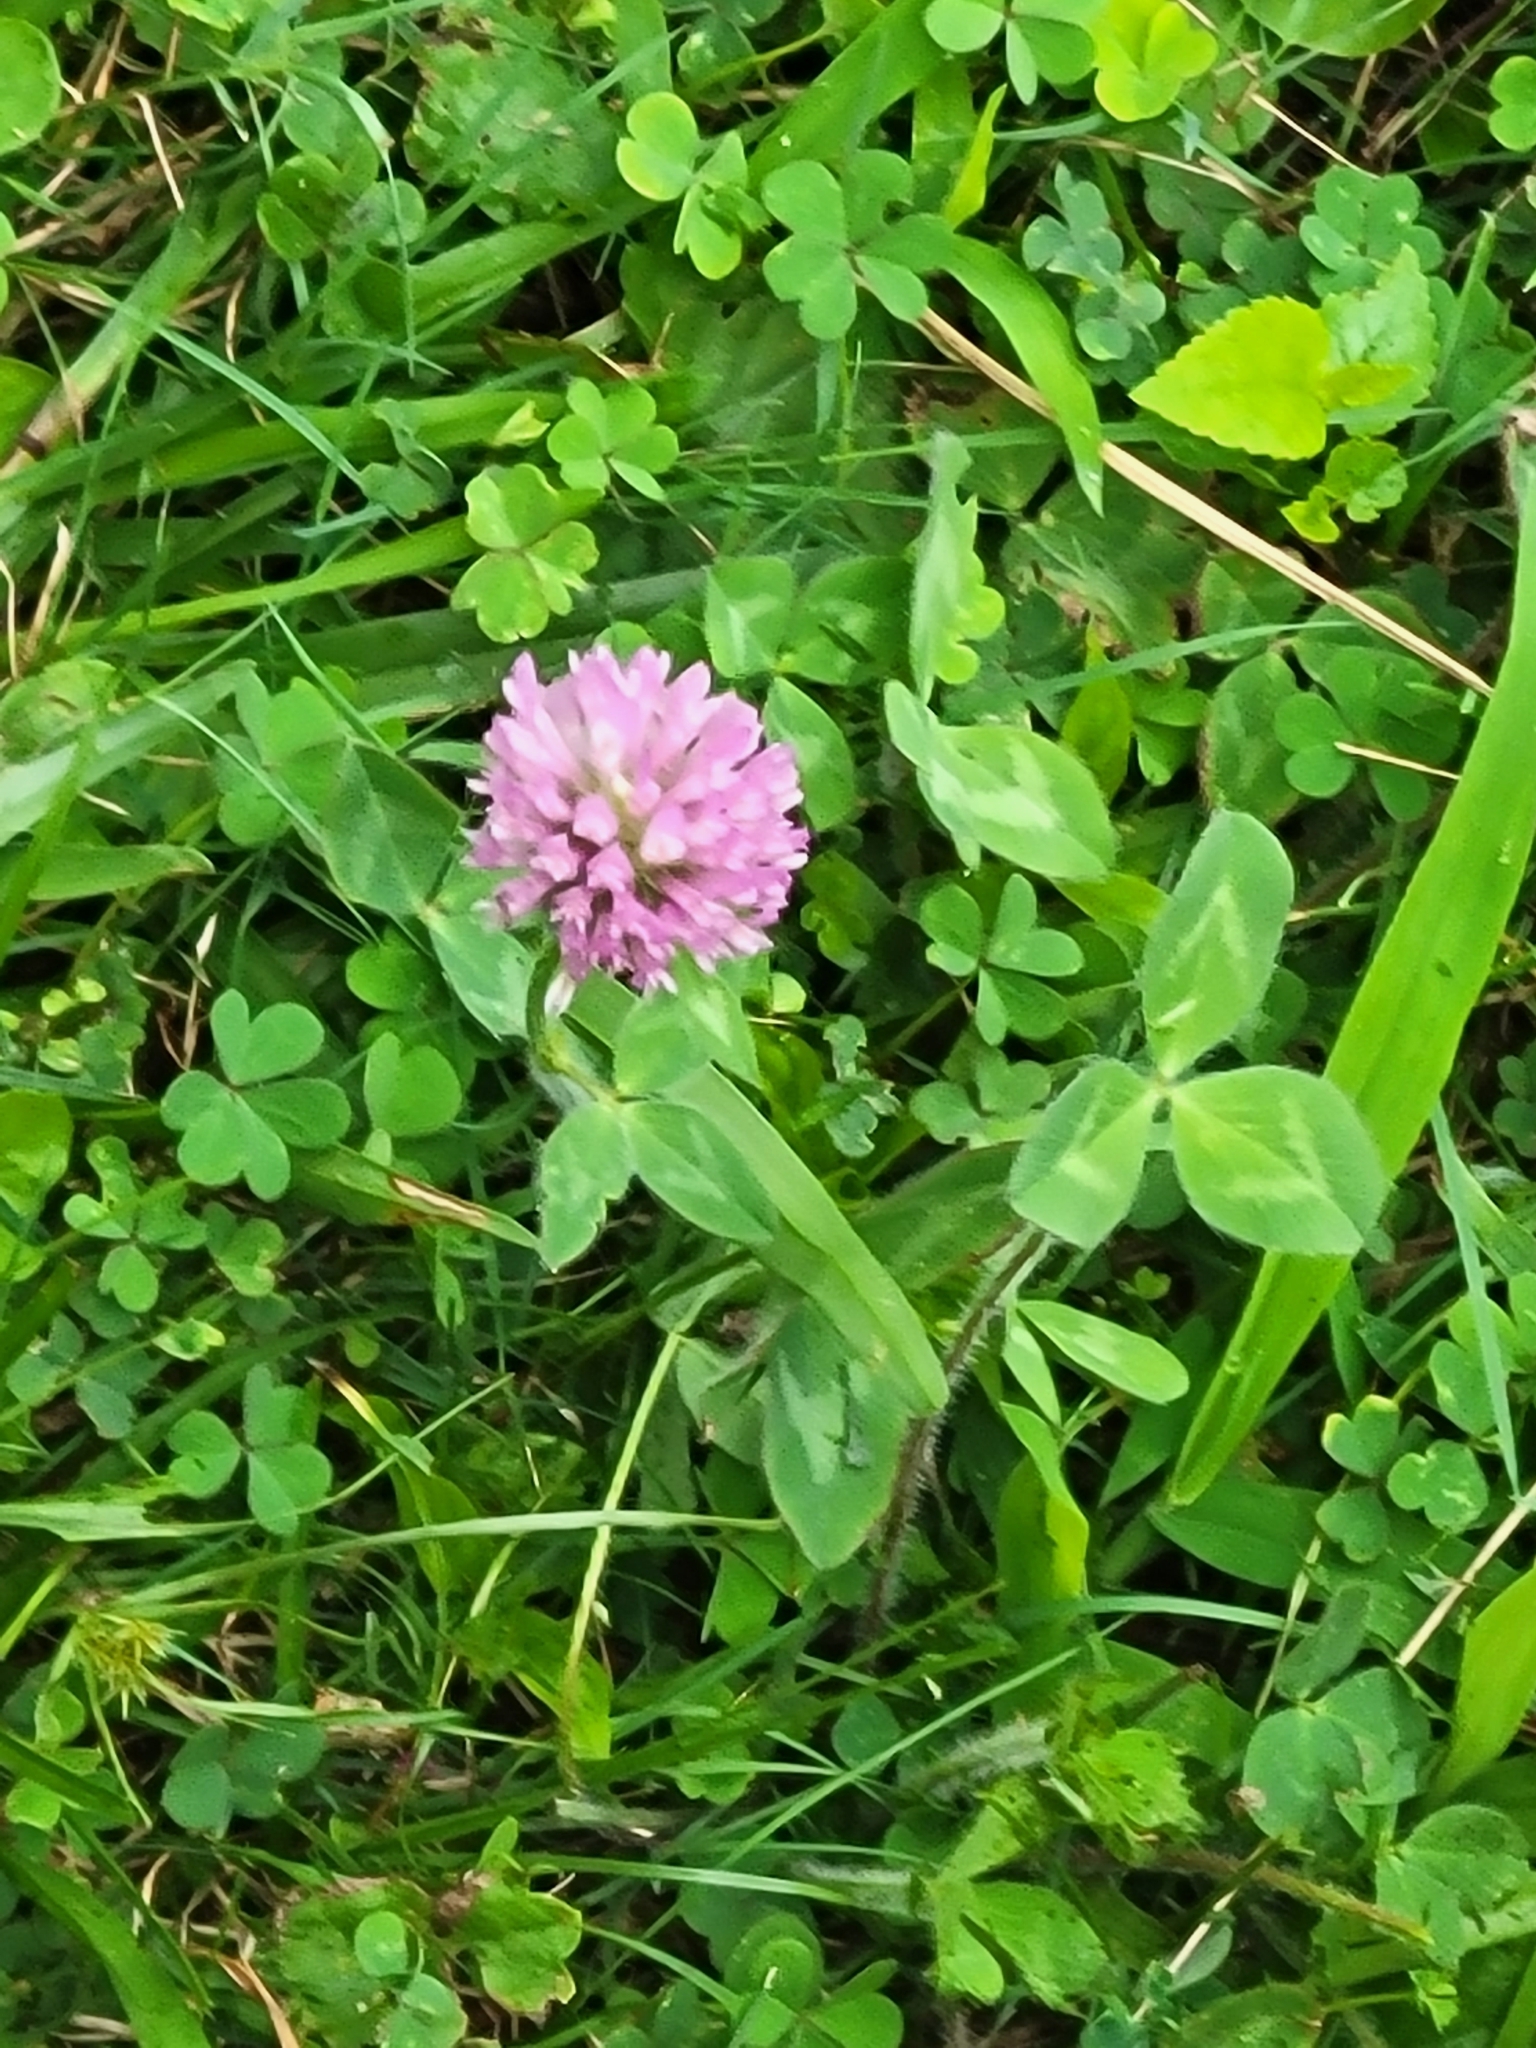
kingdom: Plantae
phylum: Tracheophyta
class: Magnoliopsida
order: Fabales
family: Fabaceae
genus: Trifolium
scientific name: Trifolium pratense
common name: Red clover
